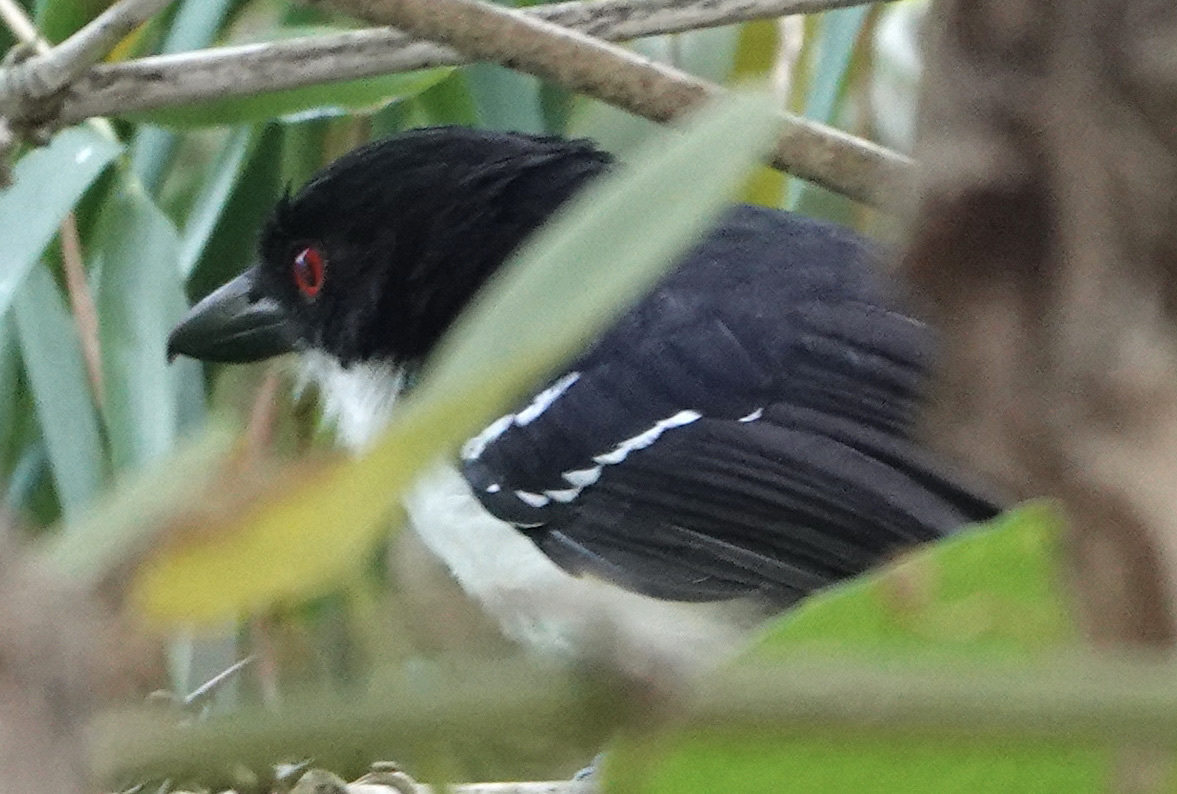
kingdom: Animalia
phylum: Chordata
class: Aves
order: Passeriformes
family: Thamnophilidae
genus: Taraba
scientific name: Taraba major
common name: Great antshrike
